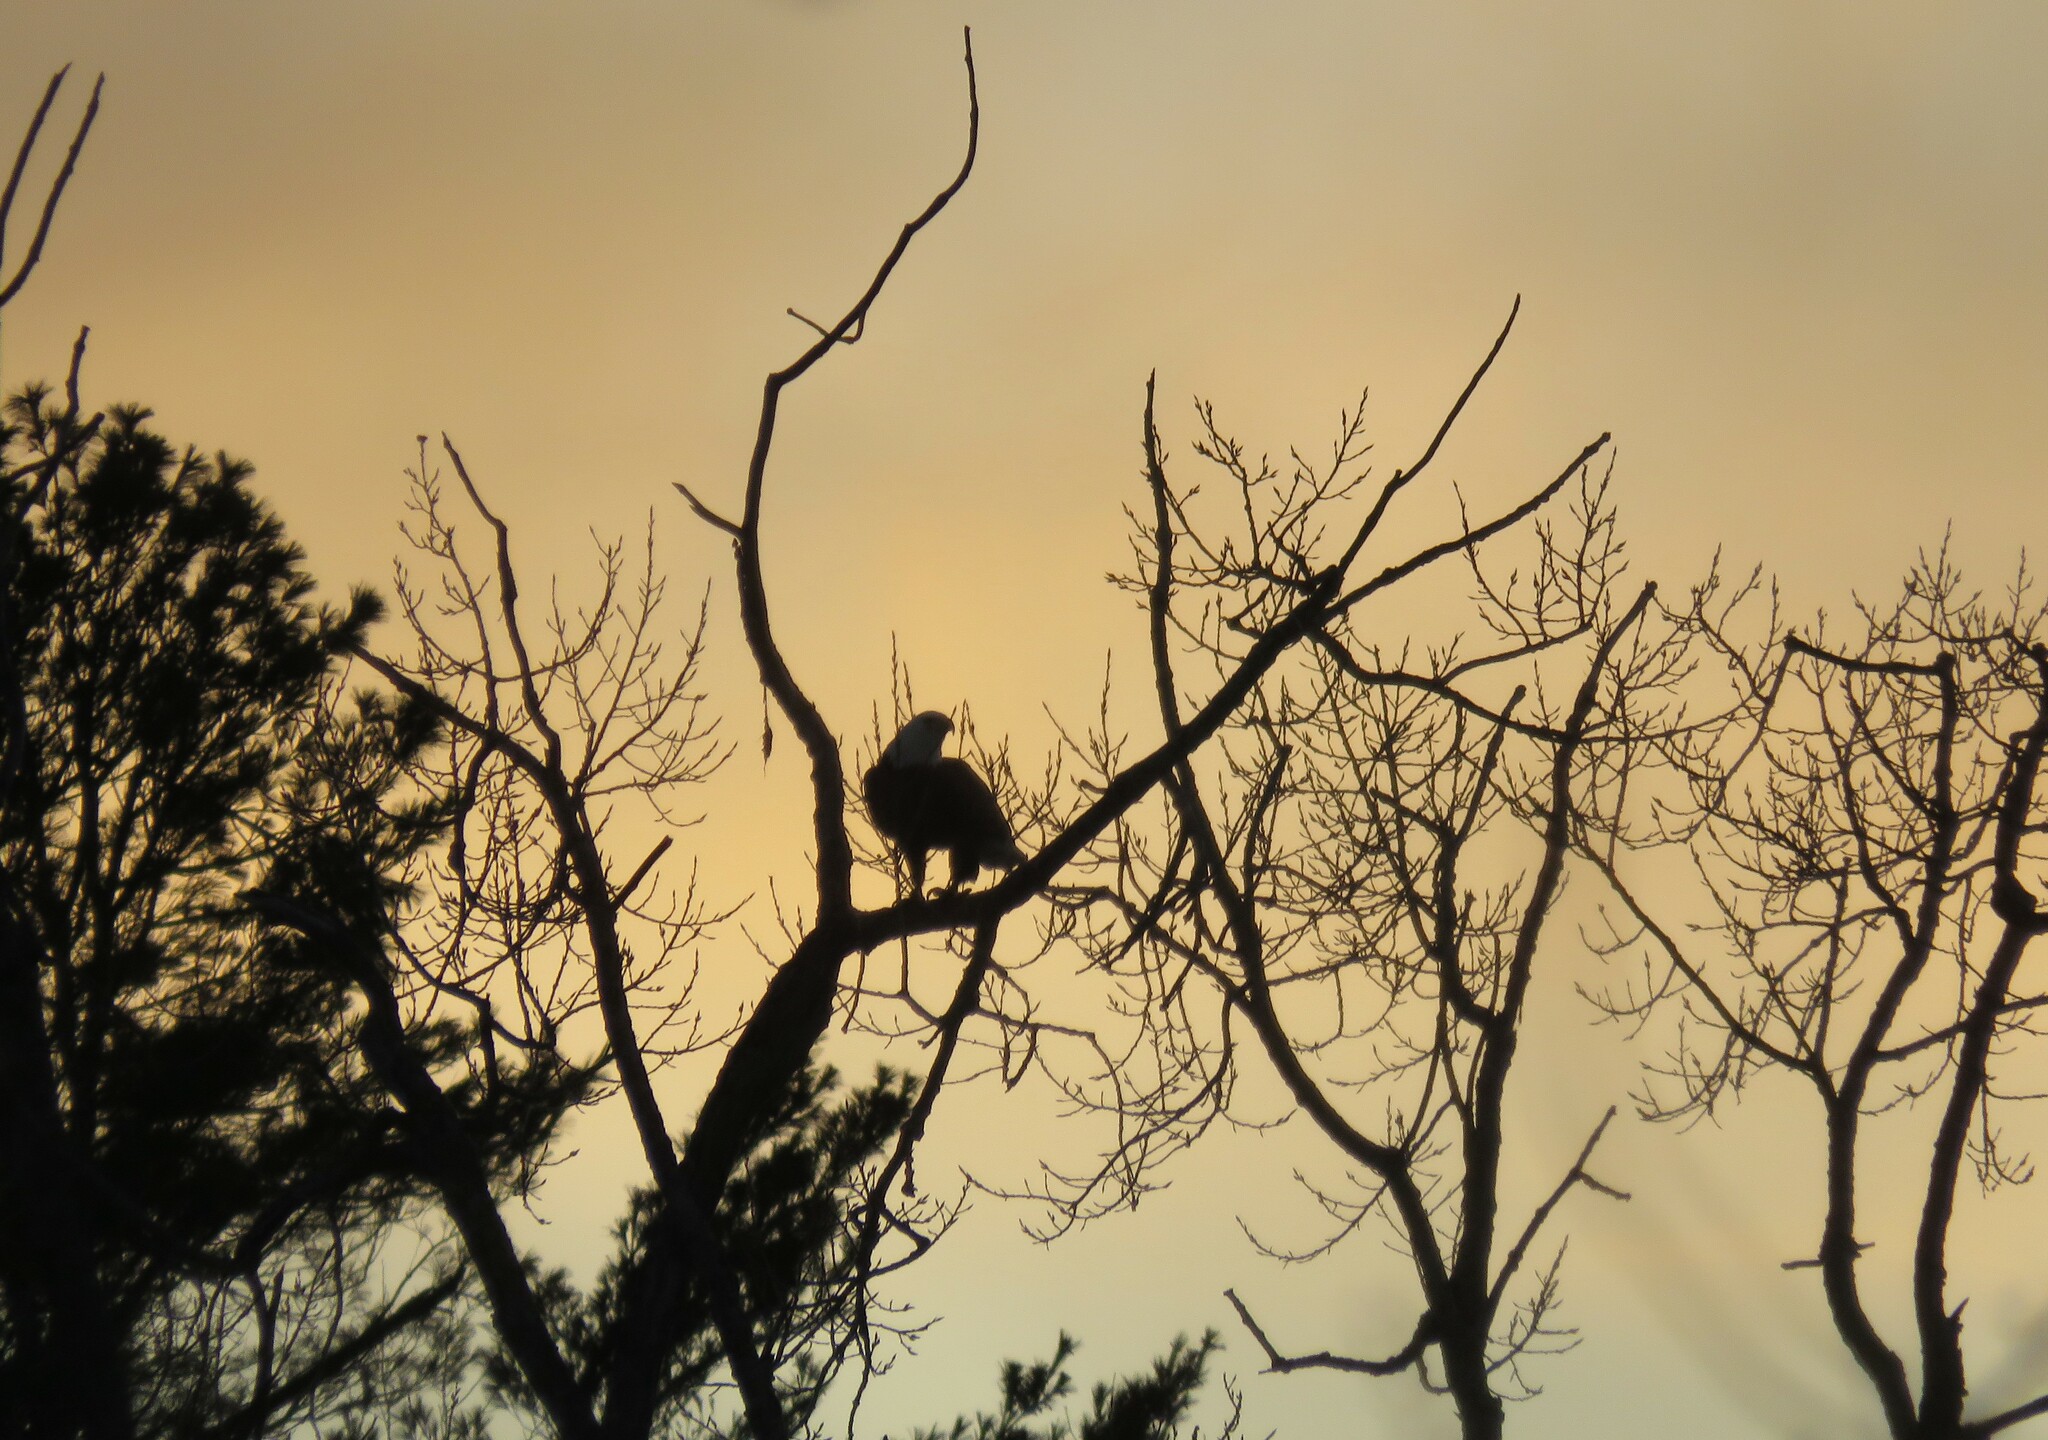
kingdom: Animalia
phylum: Chordata
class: Aves
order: Accipitriformes
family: Accipitridae
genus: Haliaeetus
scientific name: Haliaeetus leucocephalus
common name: Bald eagle
